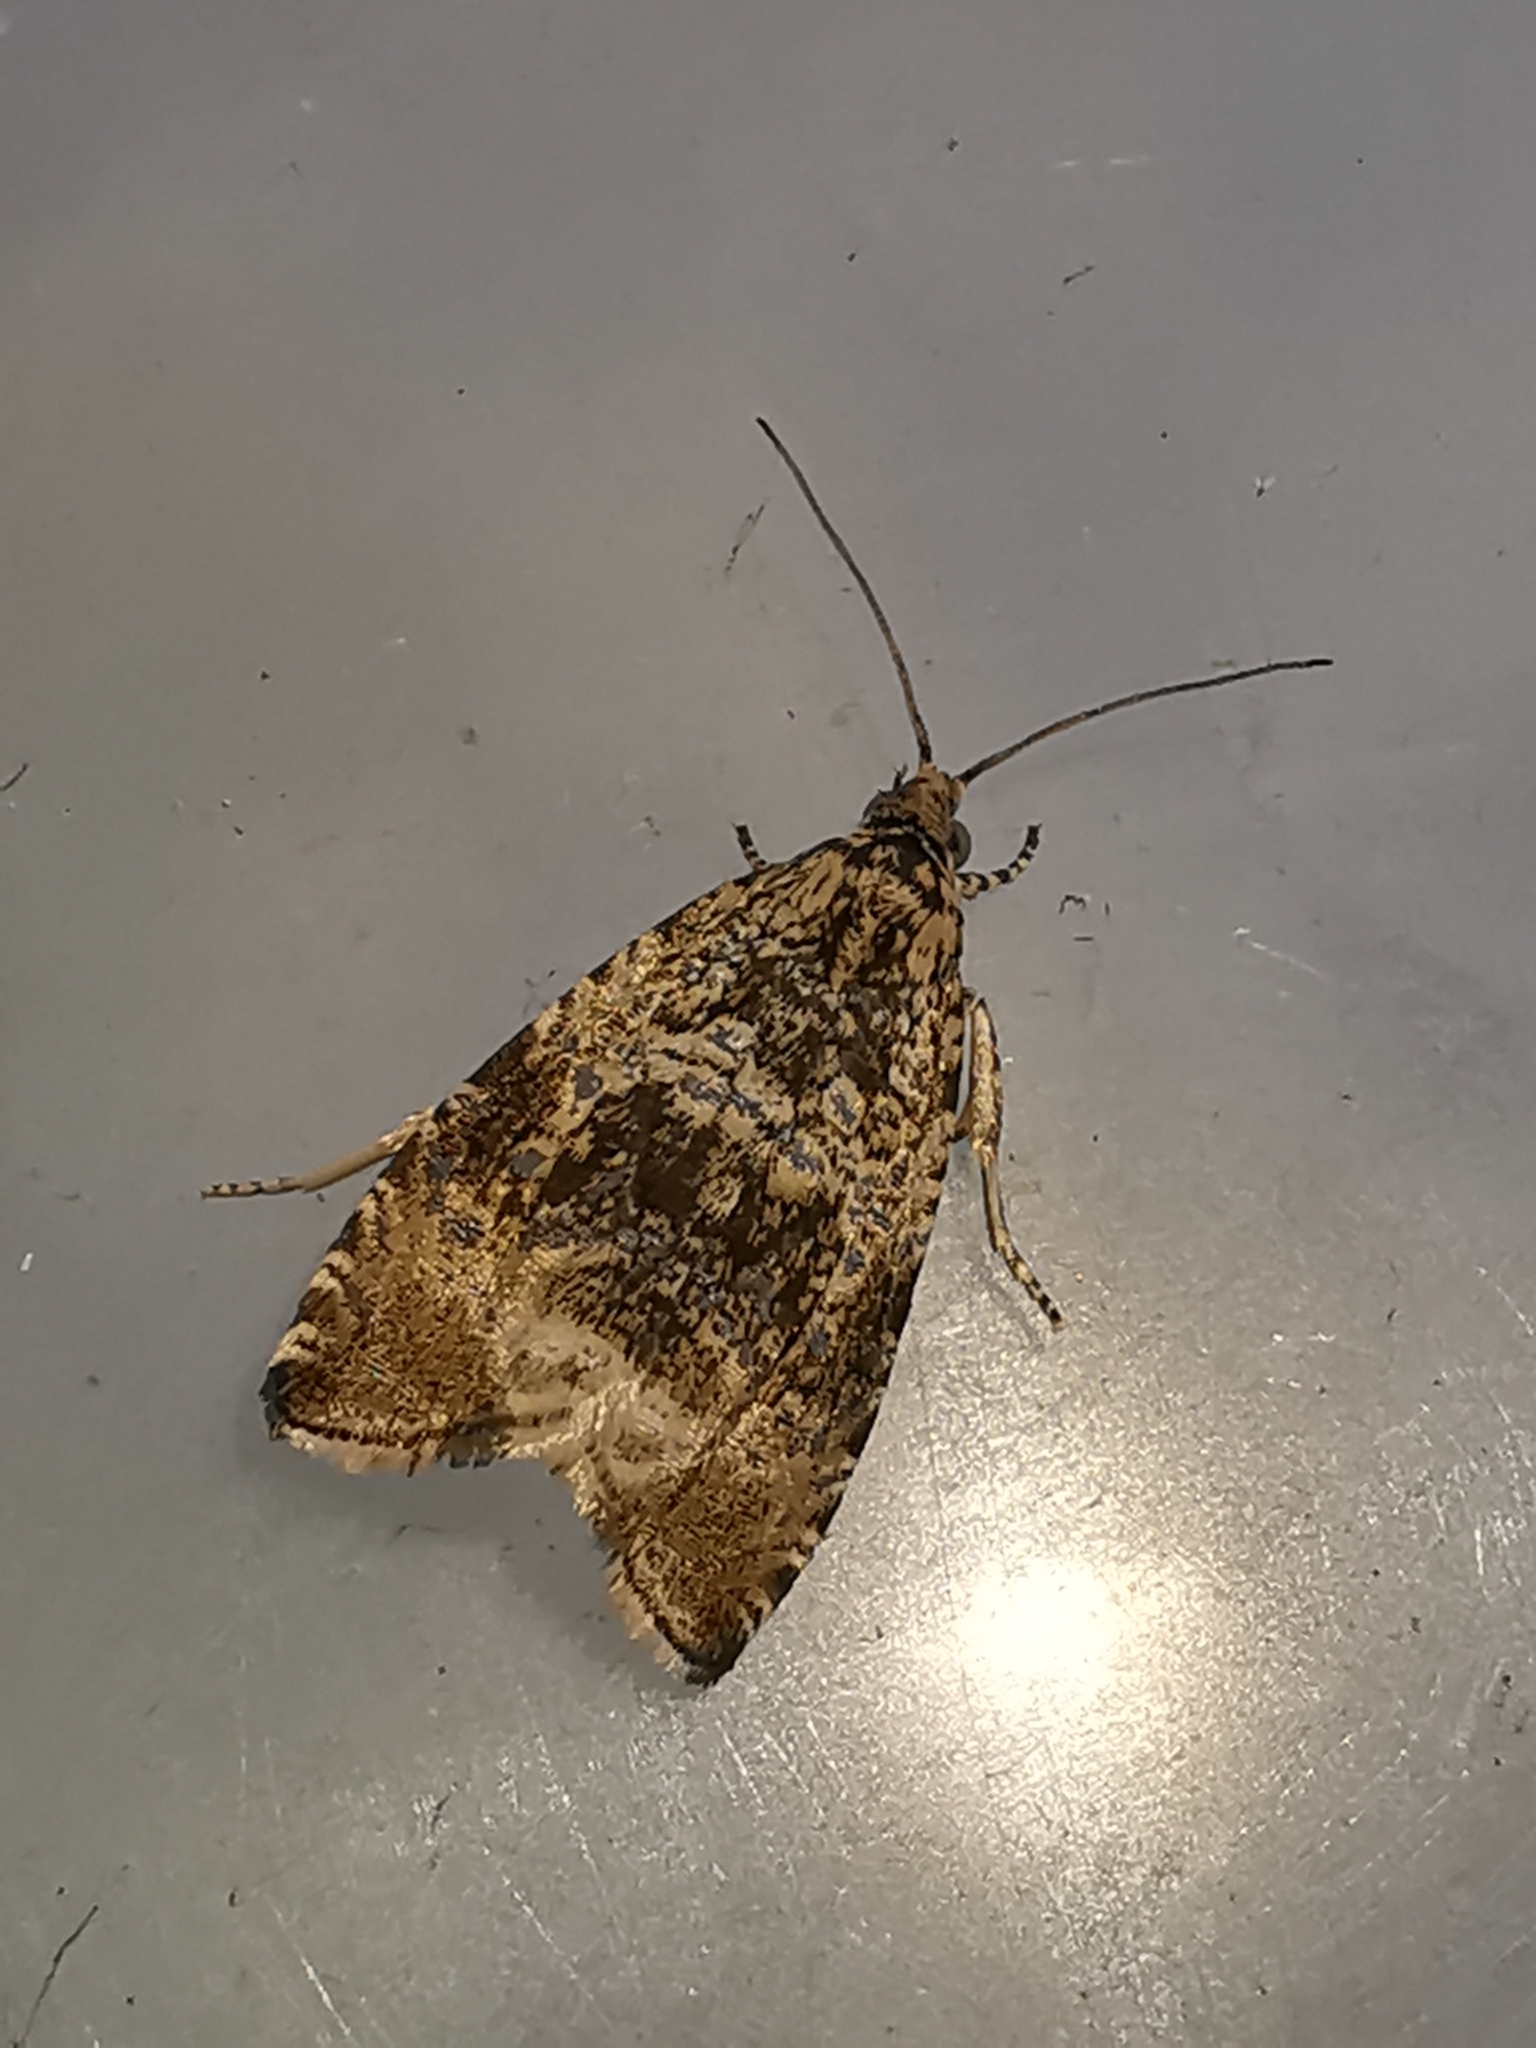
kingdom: Animalia
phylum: Arthropoda
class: Insecta
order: Lepidoptera
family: Tortricidae
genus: Syricoris
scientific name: Syricoris lacunana
